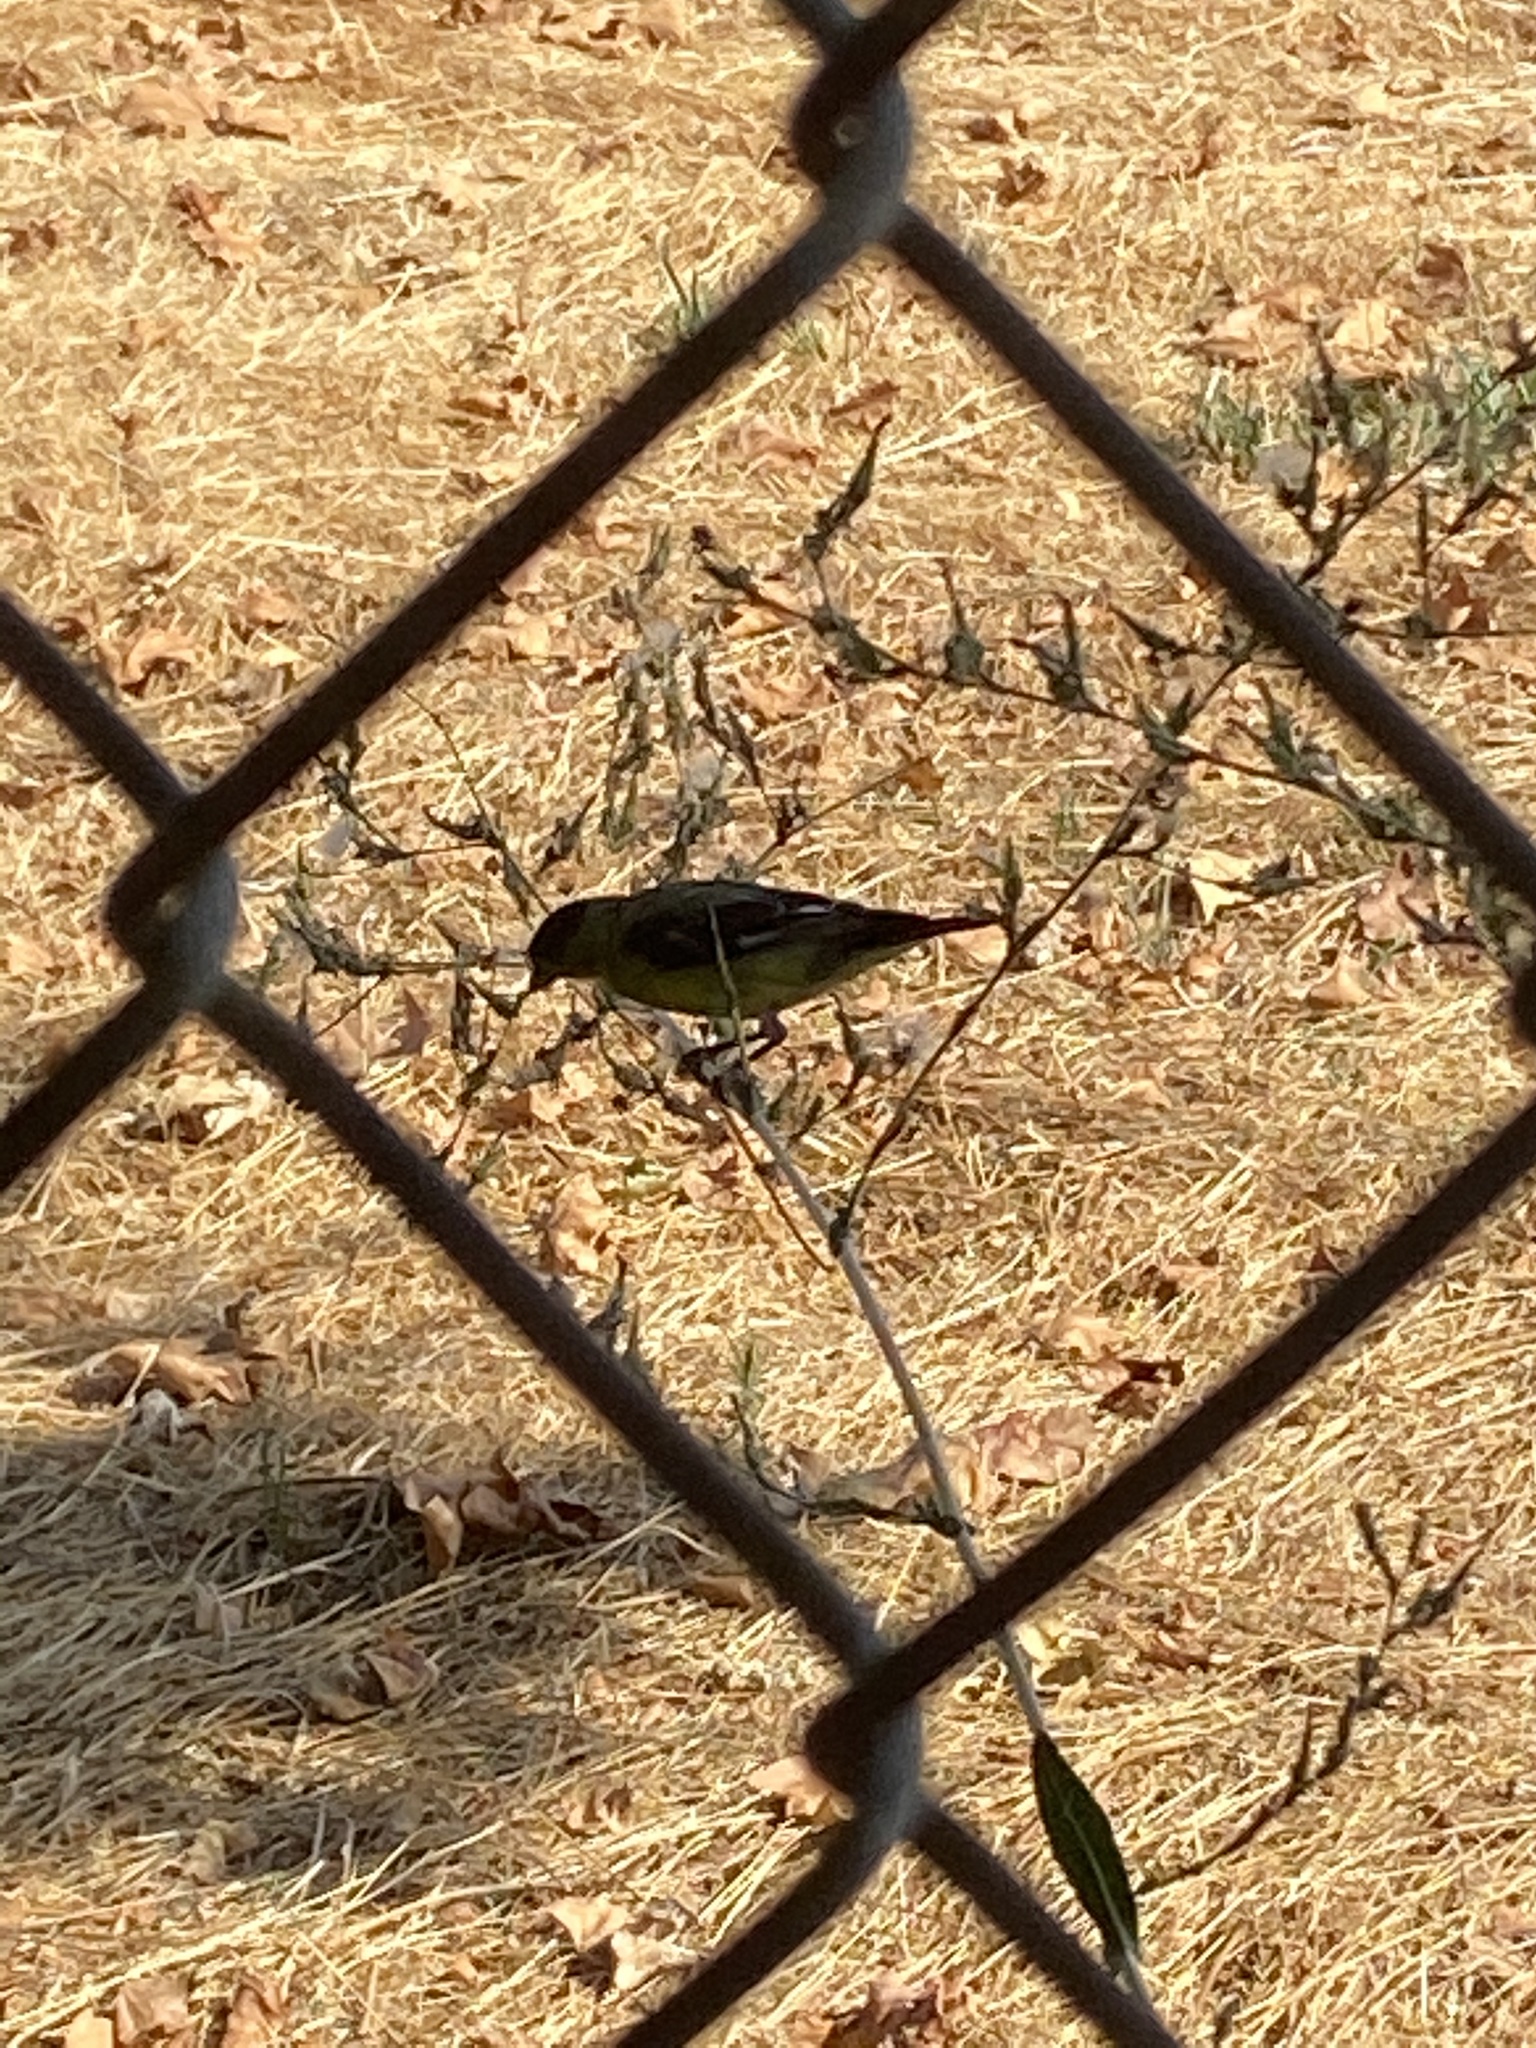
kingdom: Animalia
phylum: Chordata
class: Aves
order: Passeriformes
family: Fringillidae
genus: Spinus
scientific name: Spinus psaltria
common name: Lesser goldfinch
